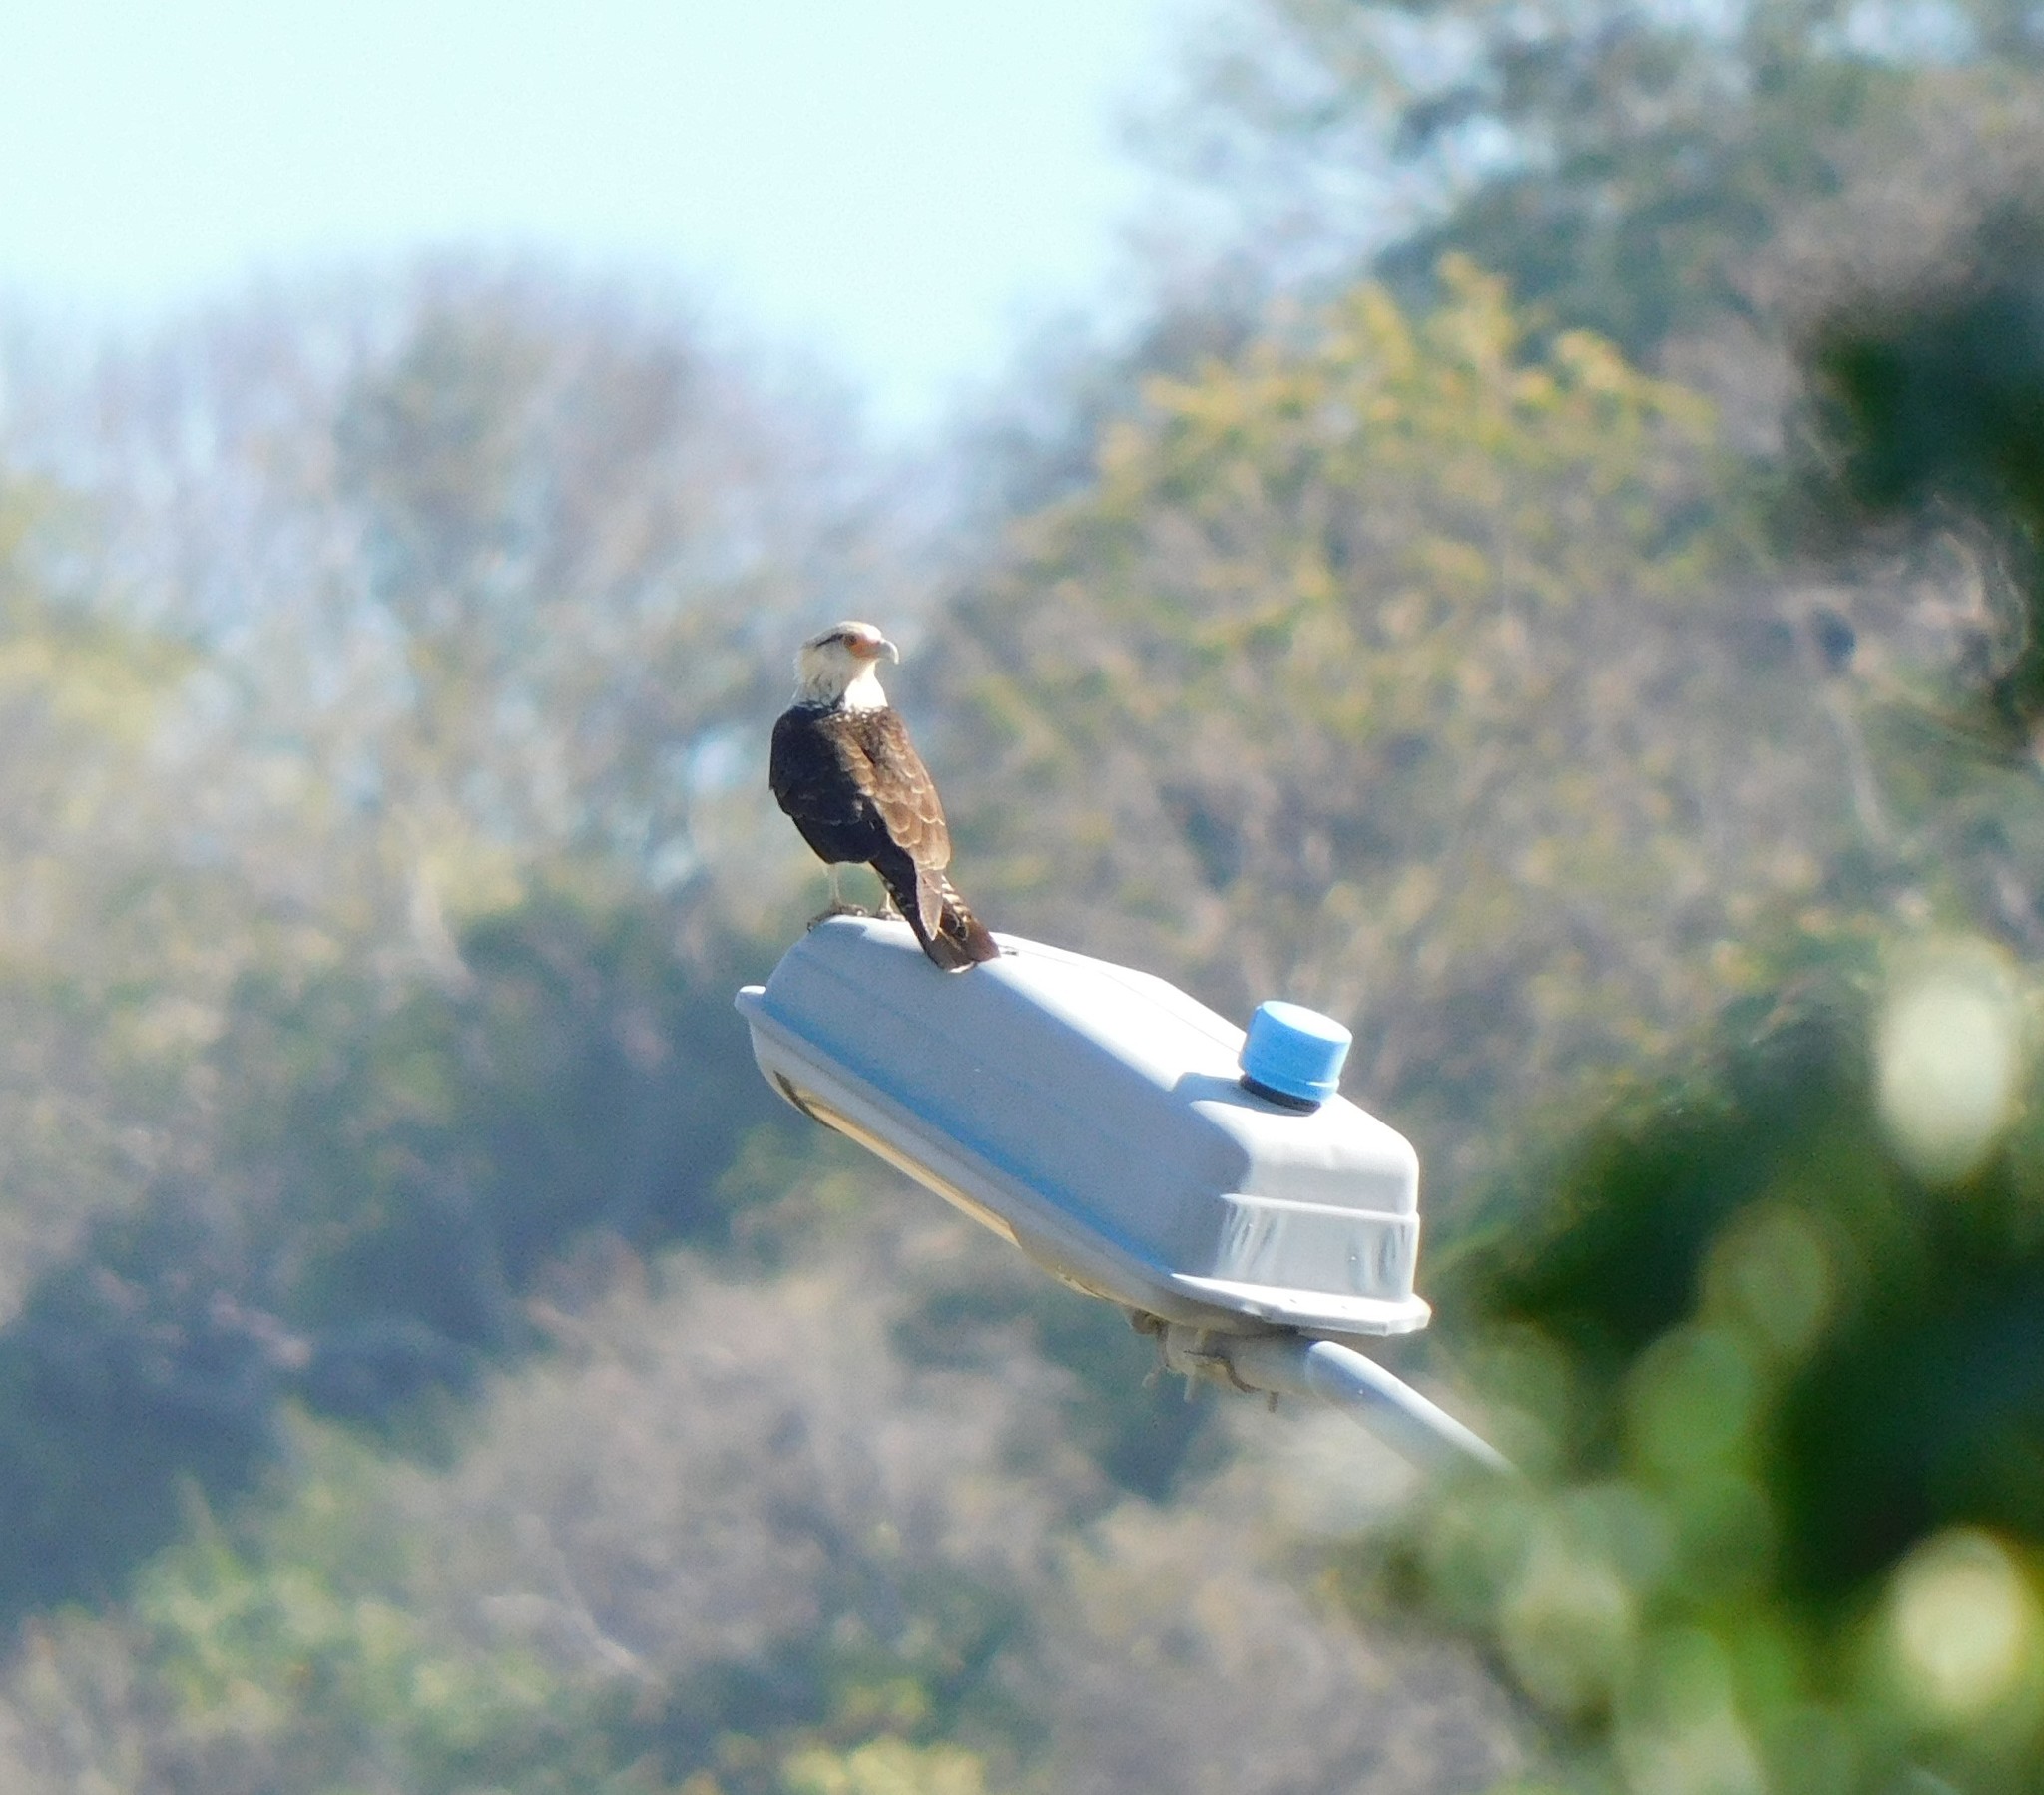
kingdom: Animalia
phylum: Chordata
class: Aves
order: Falconiformes
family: Falconidae
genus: Daptrius
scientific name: Daptrius
